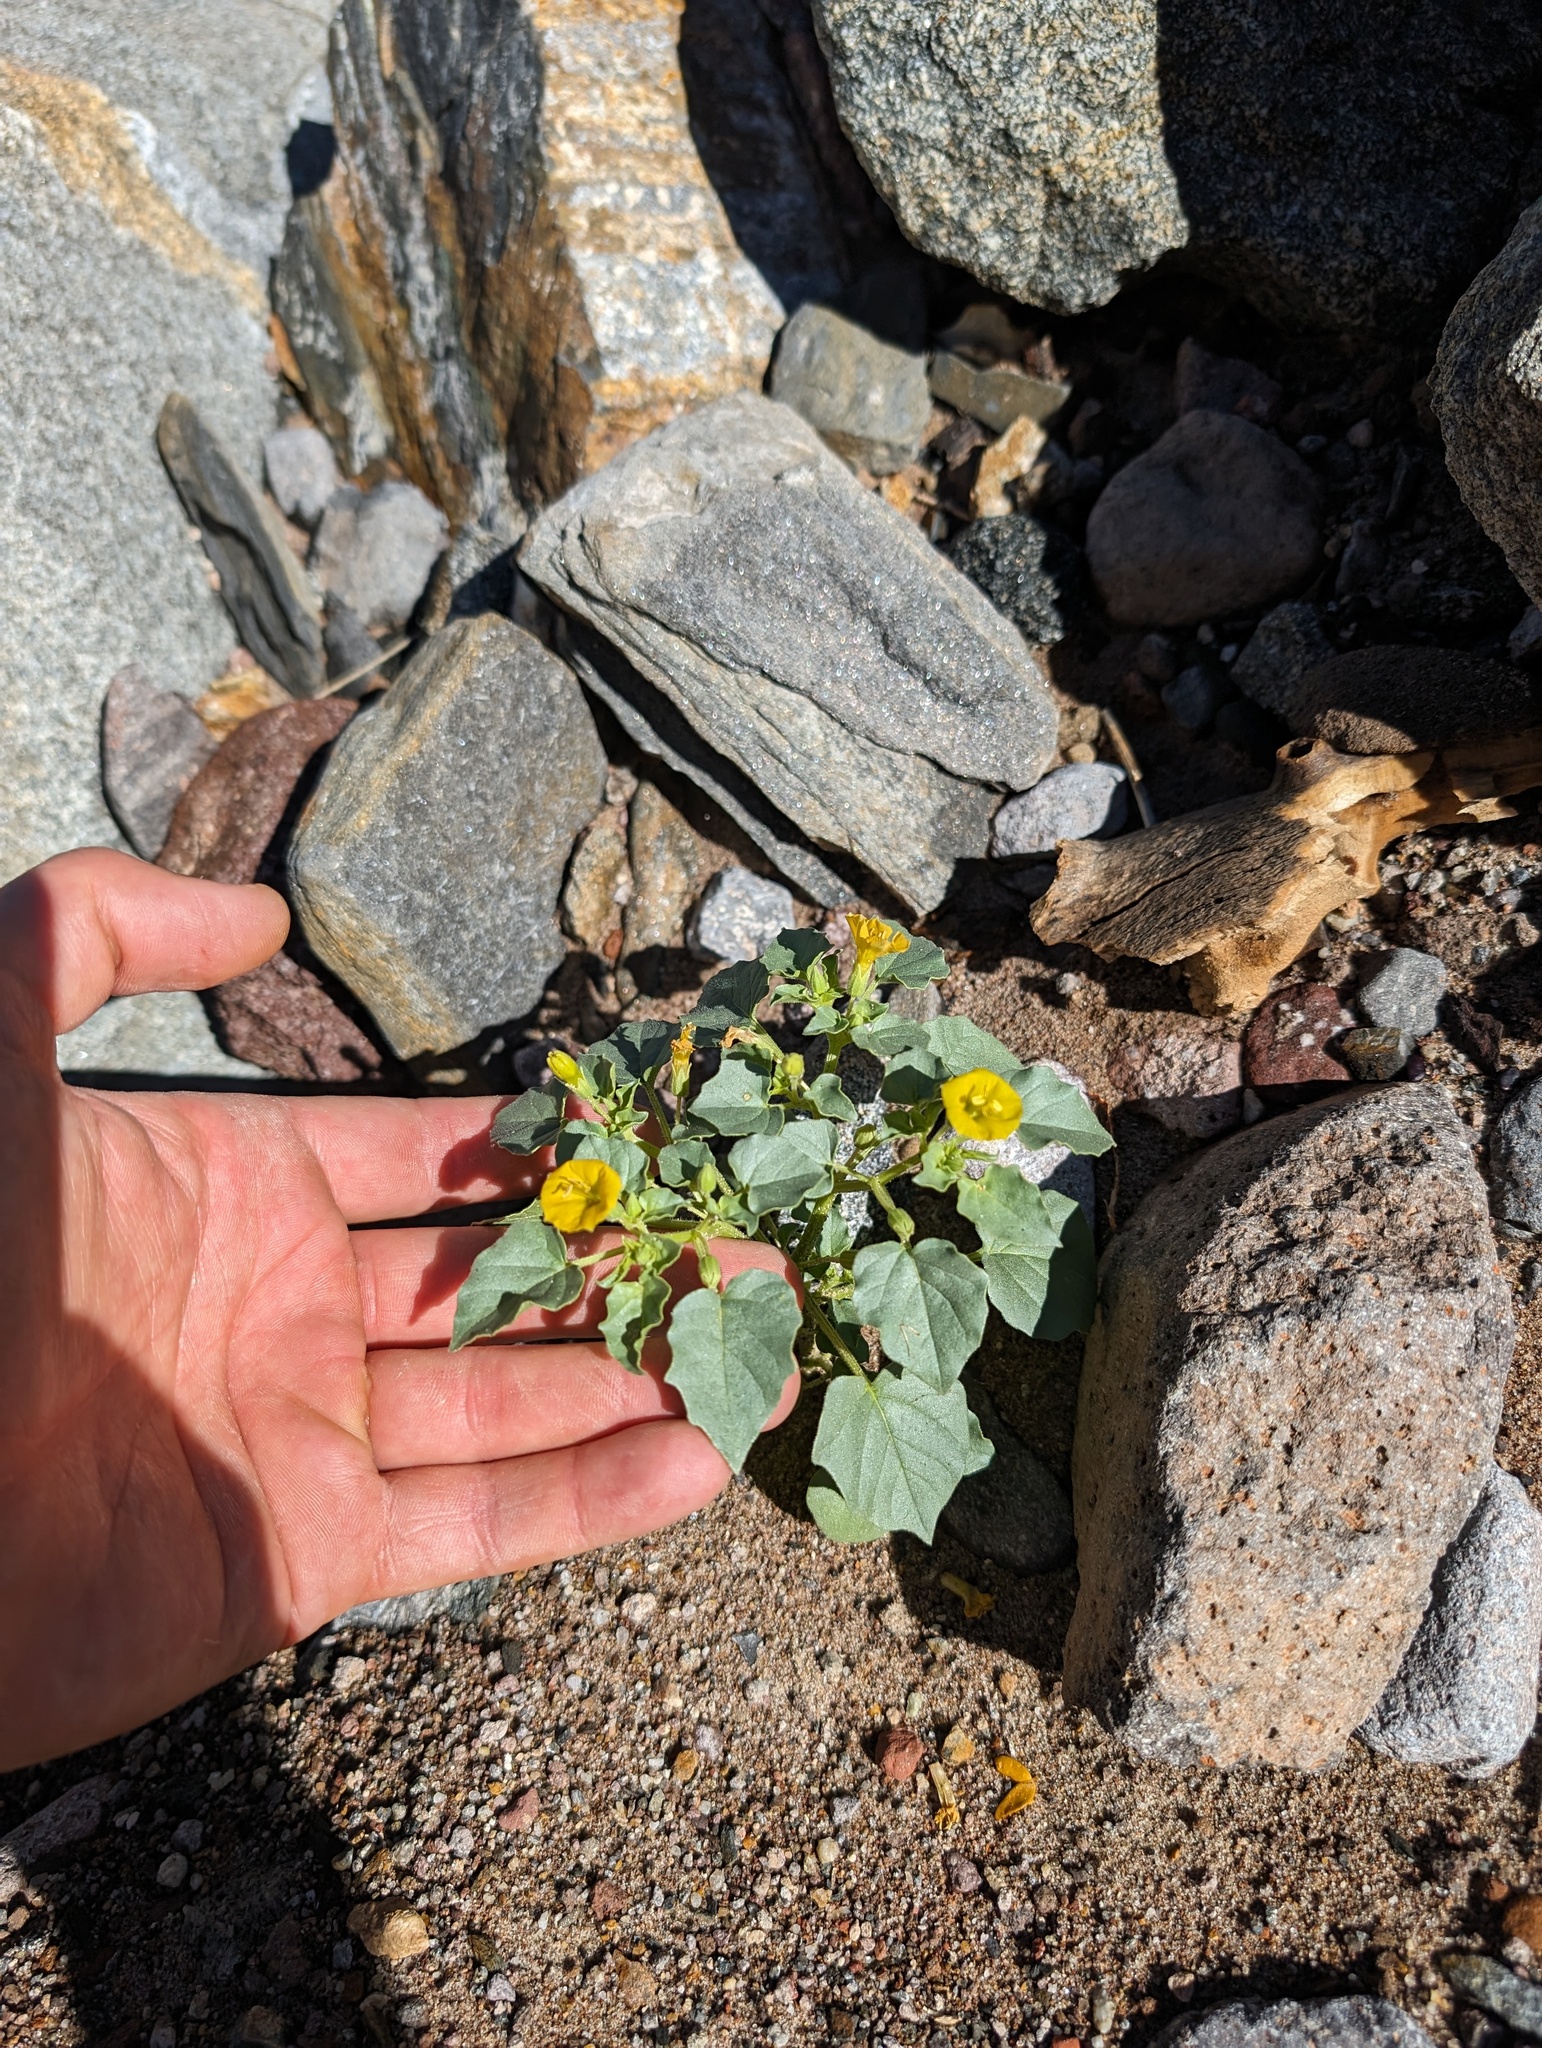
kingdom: Plantae
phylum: Tracheophyta
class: Magnoliopsida
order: Solanales
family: Solanaceae
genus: Physalis
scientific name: Physalis crassifolia
